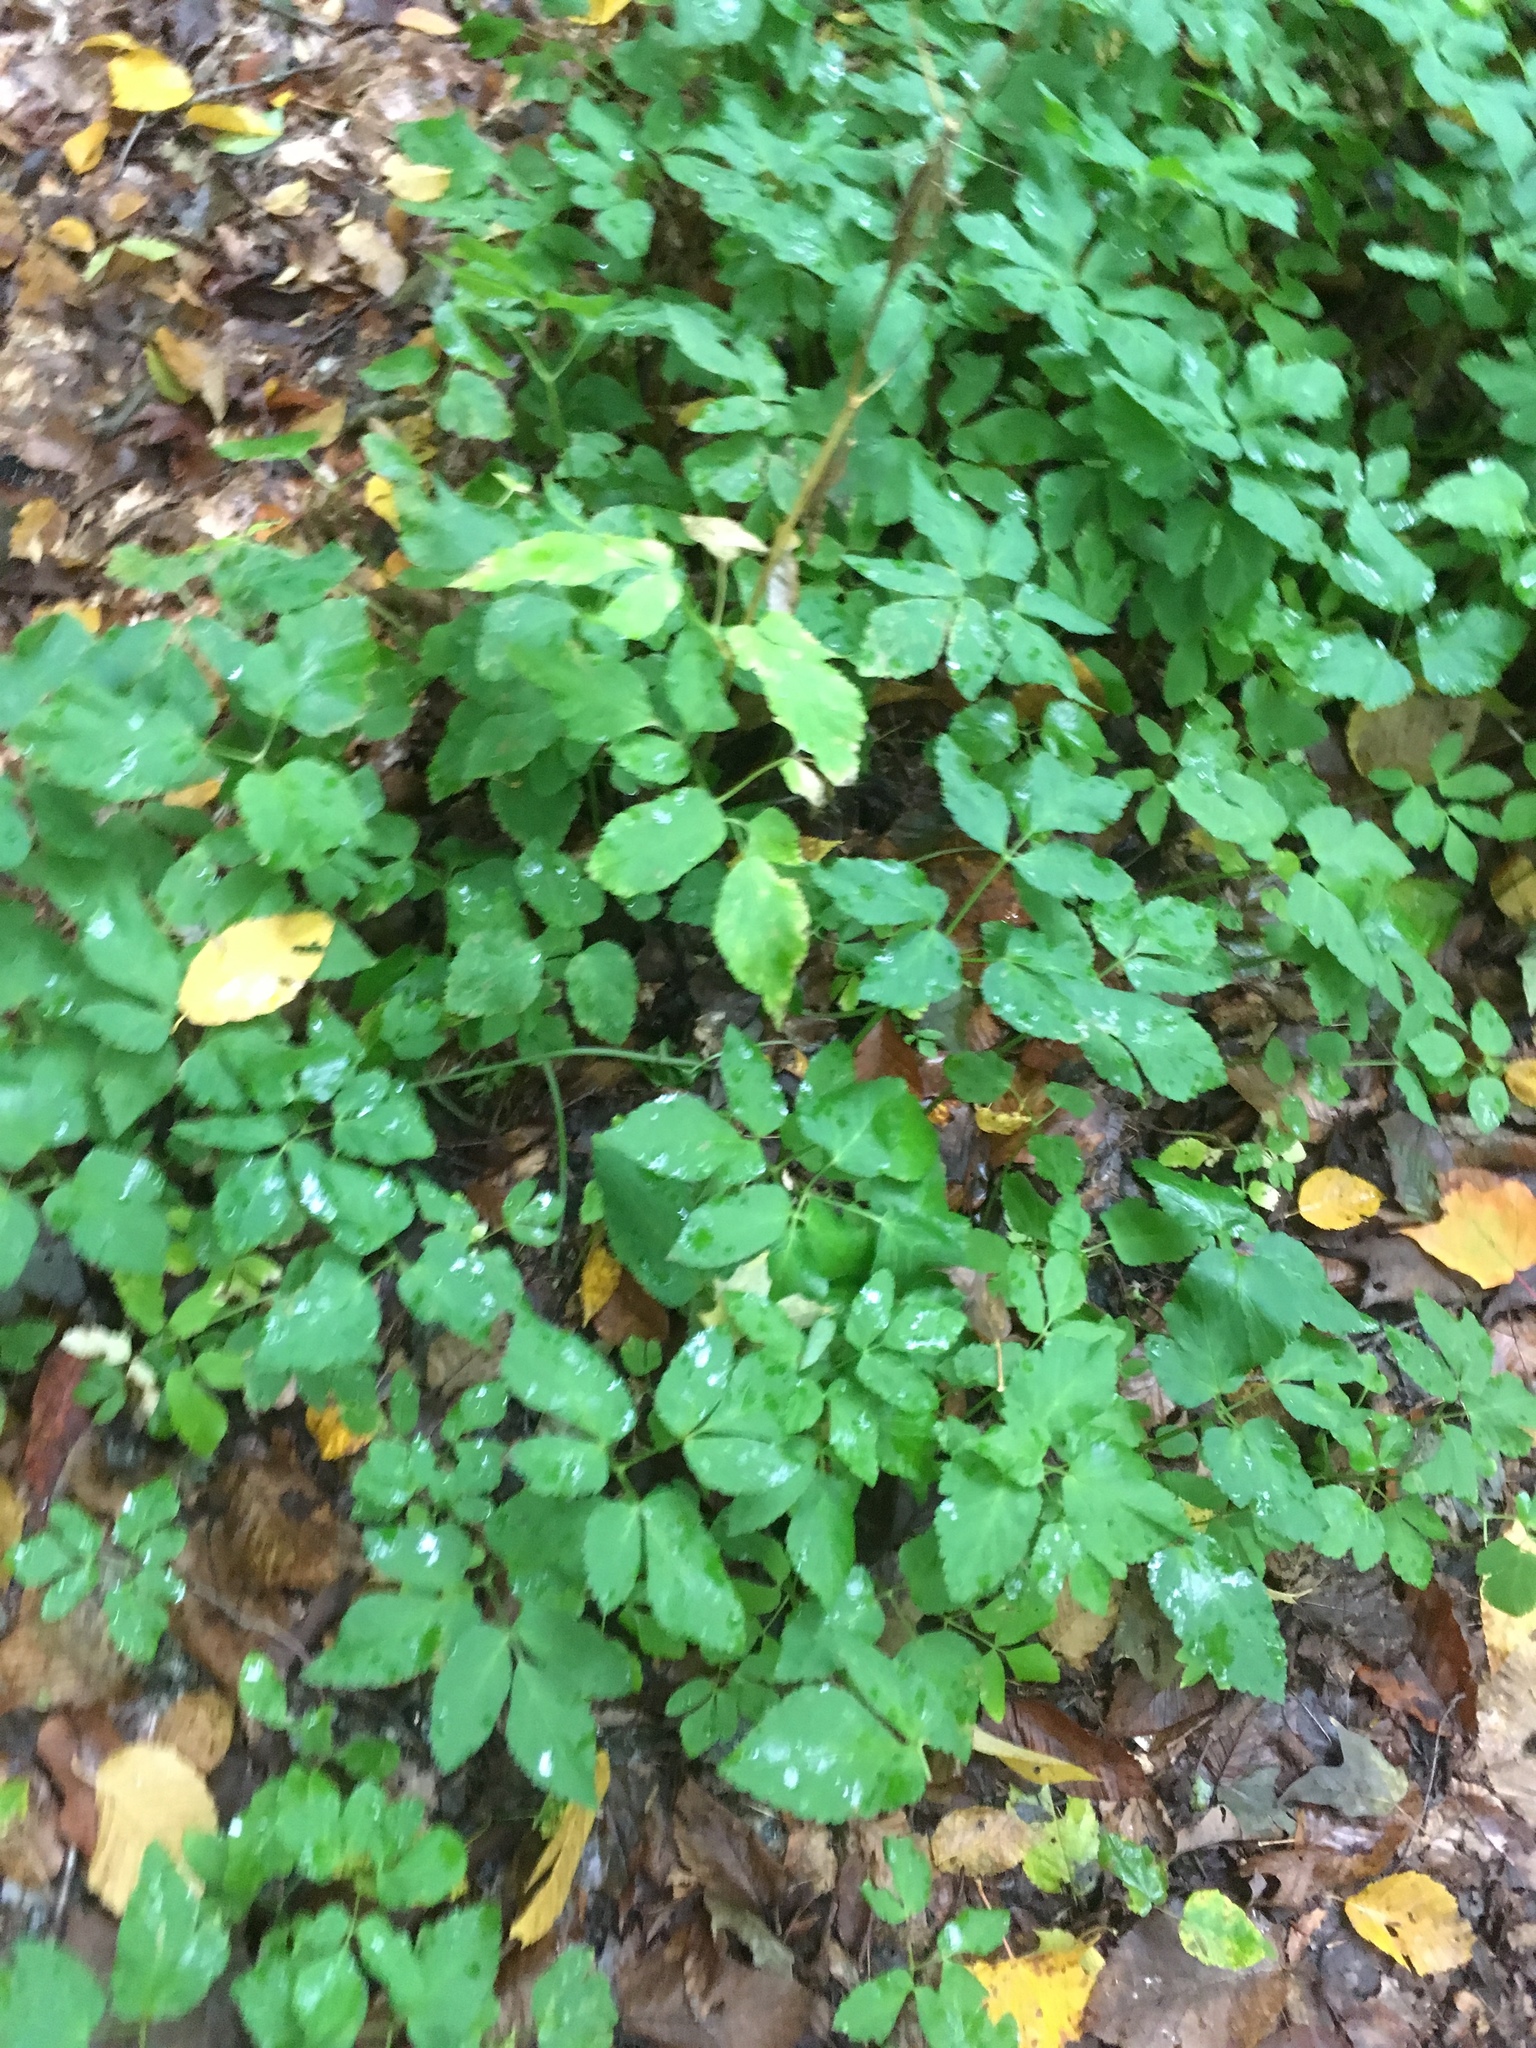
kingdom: Plantae
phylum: Tracheophyta
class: Magnoliopsida
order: Apiales
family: Apiaceae
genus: Aegopodium
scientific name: Aegopodium podagraria
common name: Ground-elder
